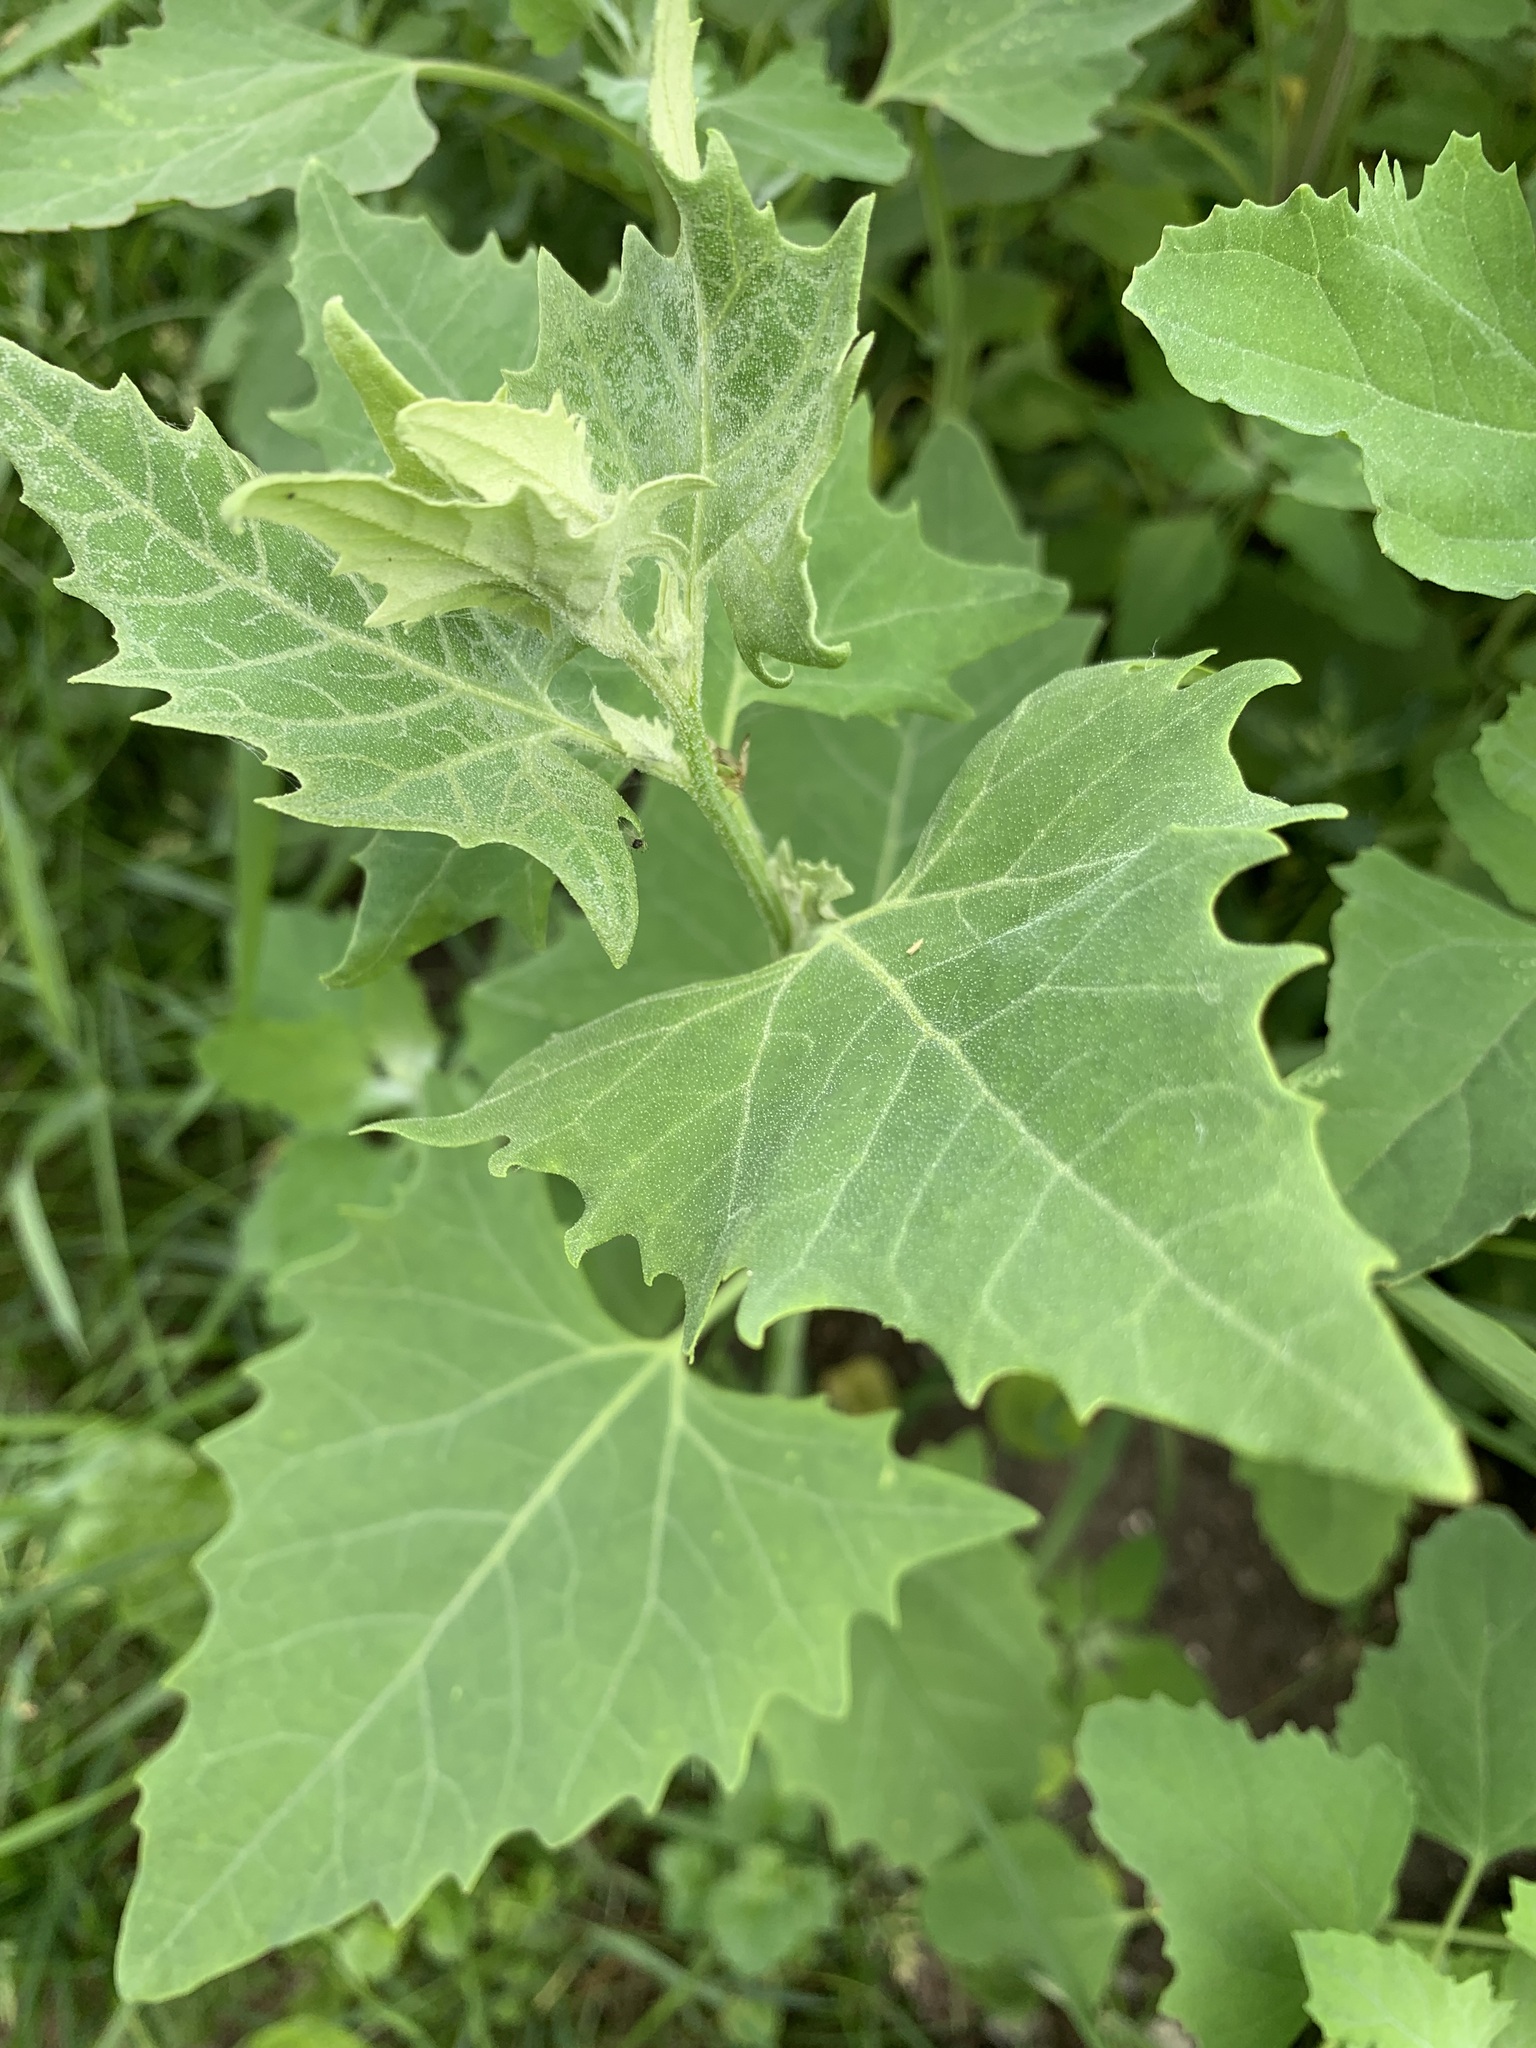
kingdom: Plantae
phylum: Tracheophyta
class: Magnoliopsida
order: Caryophyllales
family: Amaranthaceae
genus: Atriplex
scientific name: Atriplex sagittata
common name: Purple orache
